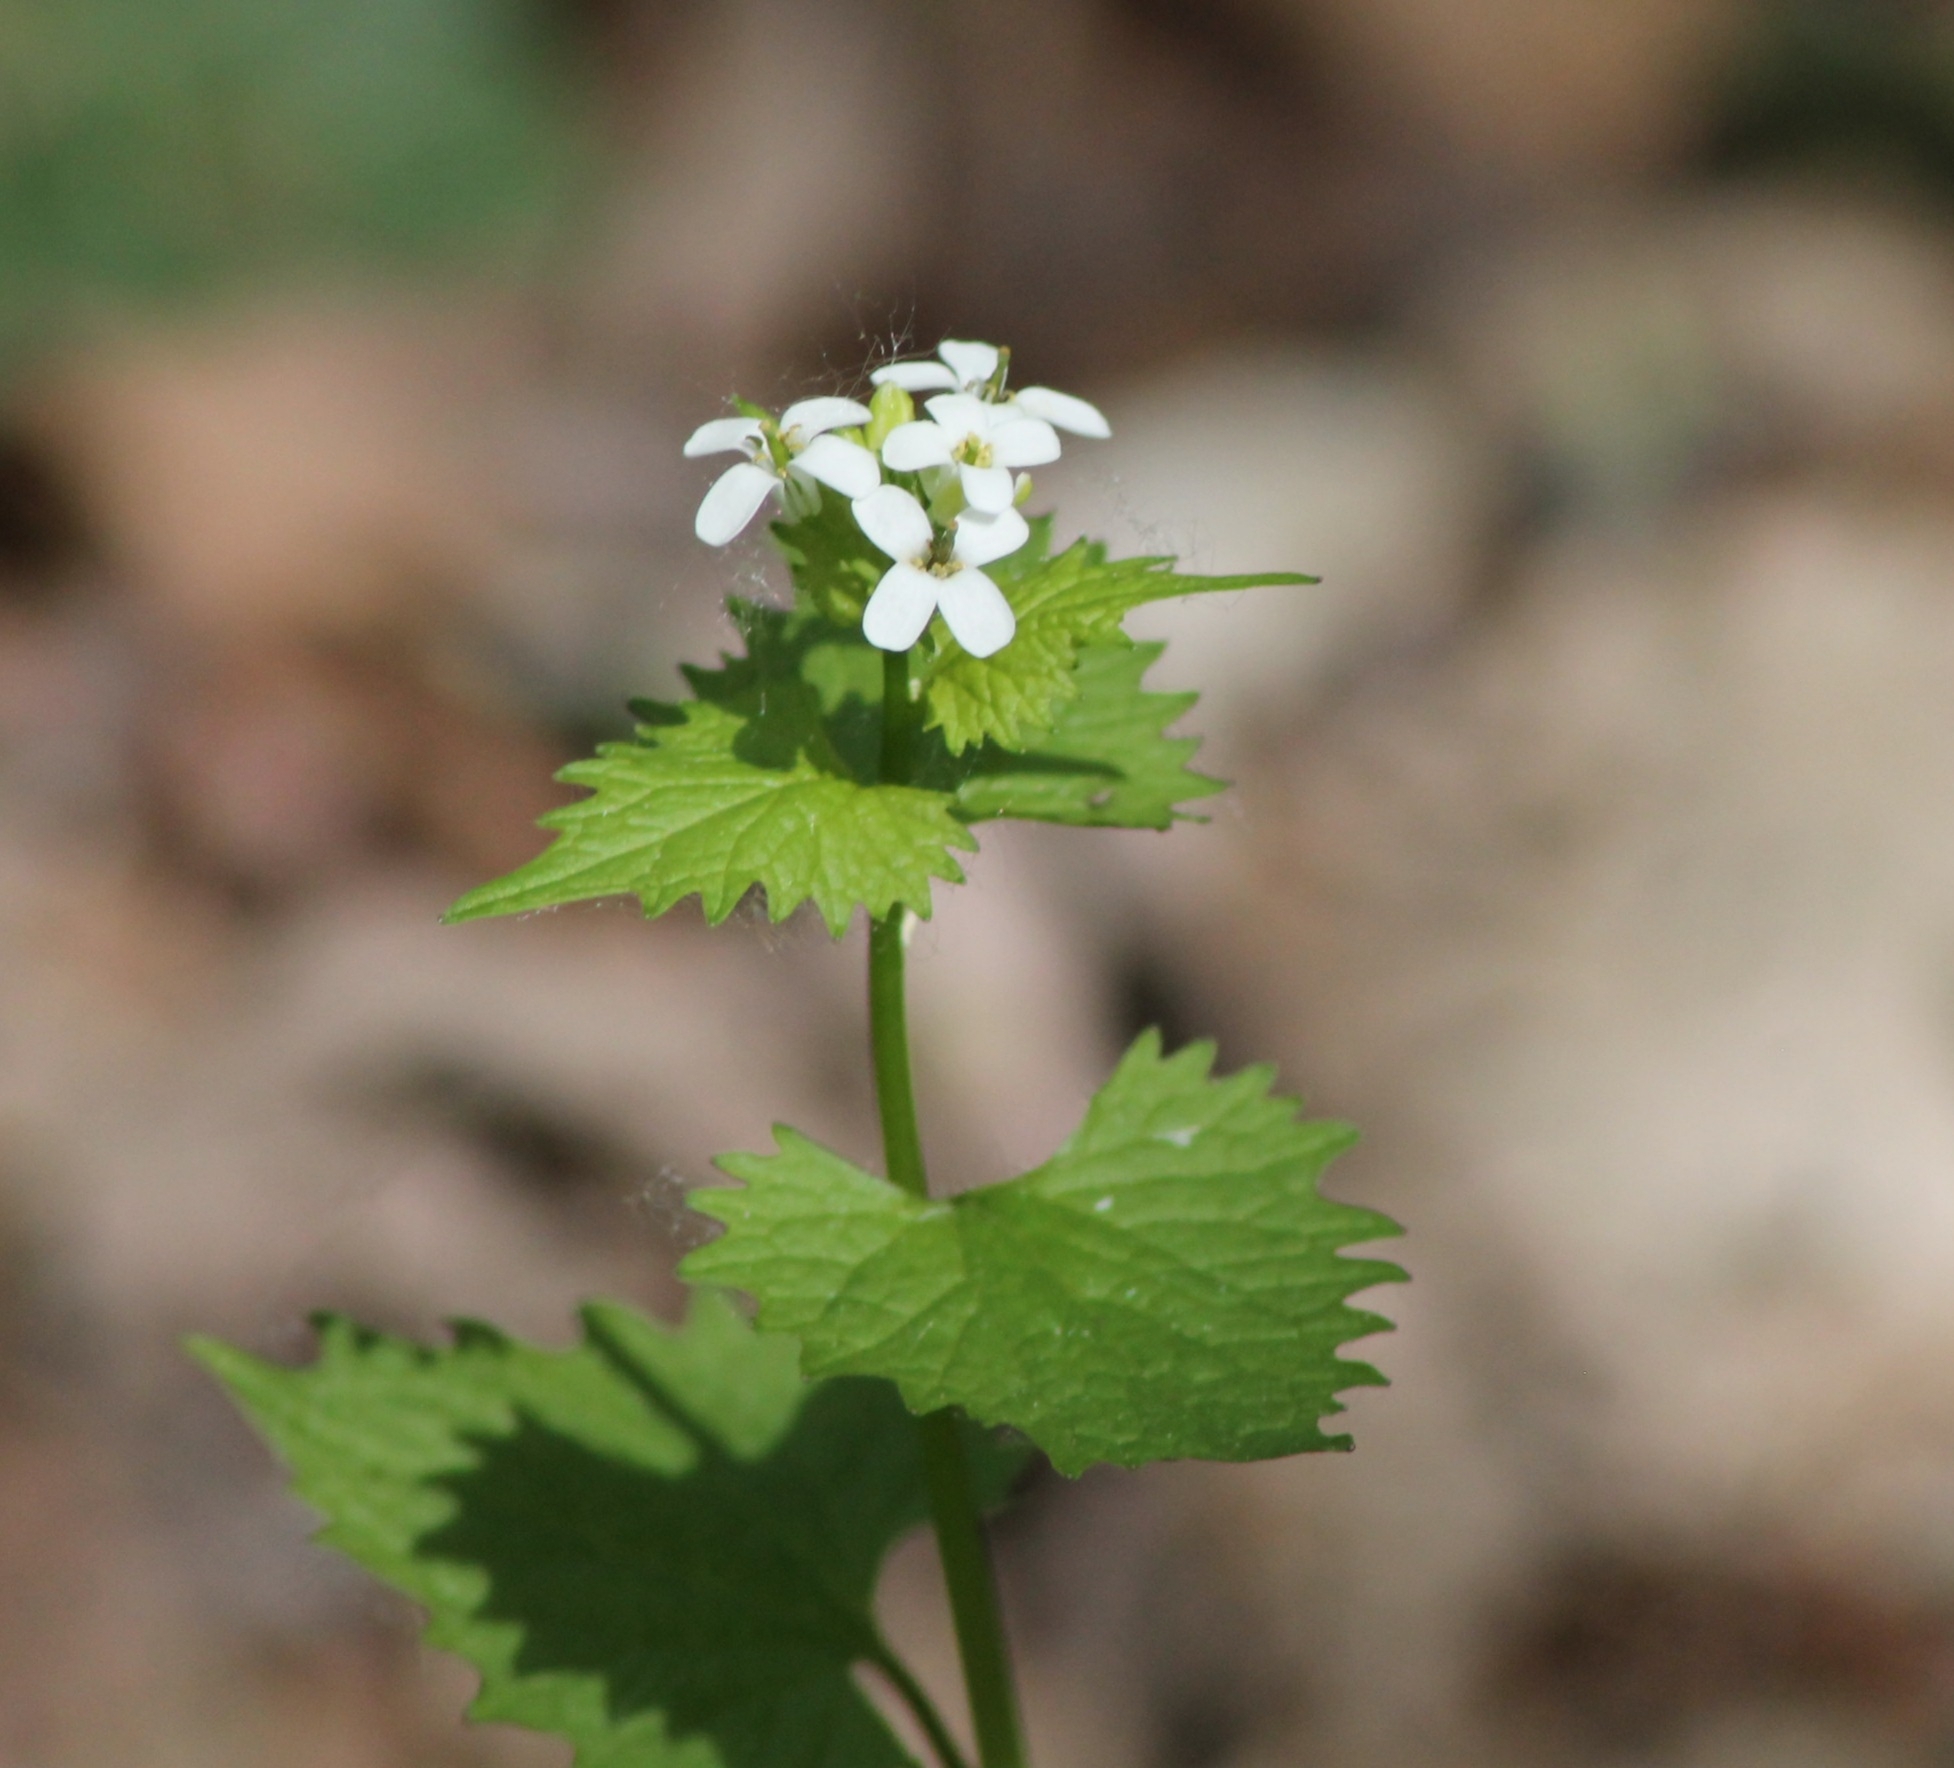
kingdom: Plantae
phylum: Tracheophyta
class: Magnoliopsida
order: Brassicales
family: Brassicaceae
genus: Alliaria
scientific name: Alliaria petiolata
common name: Garlic mustard
